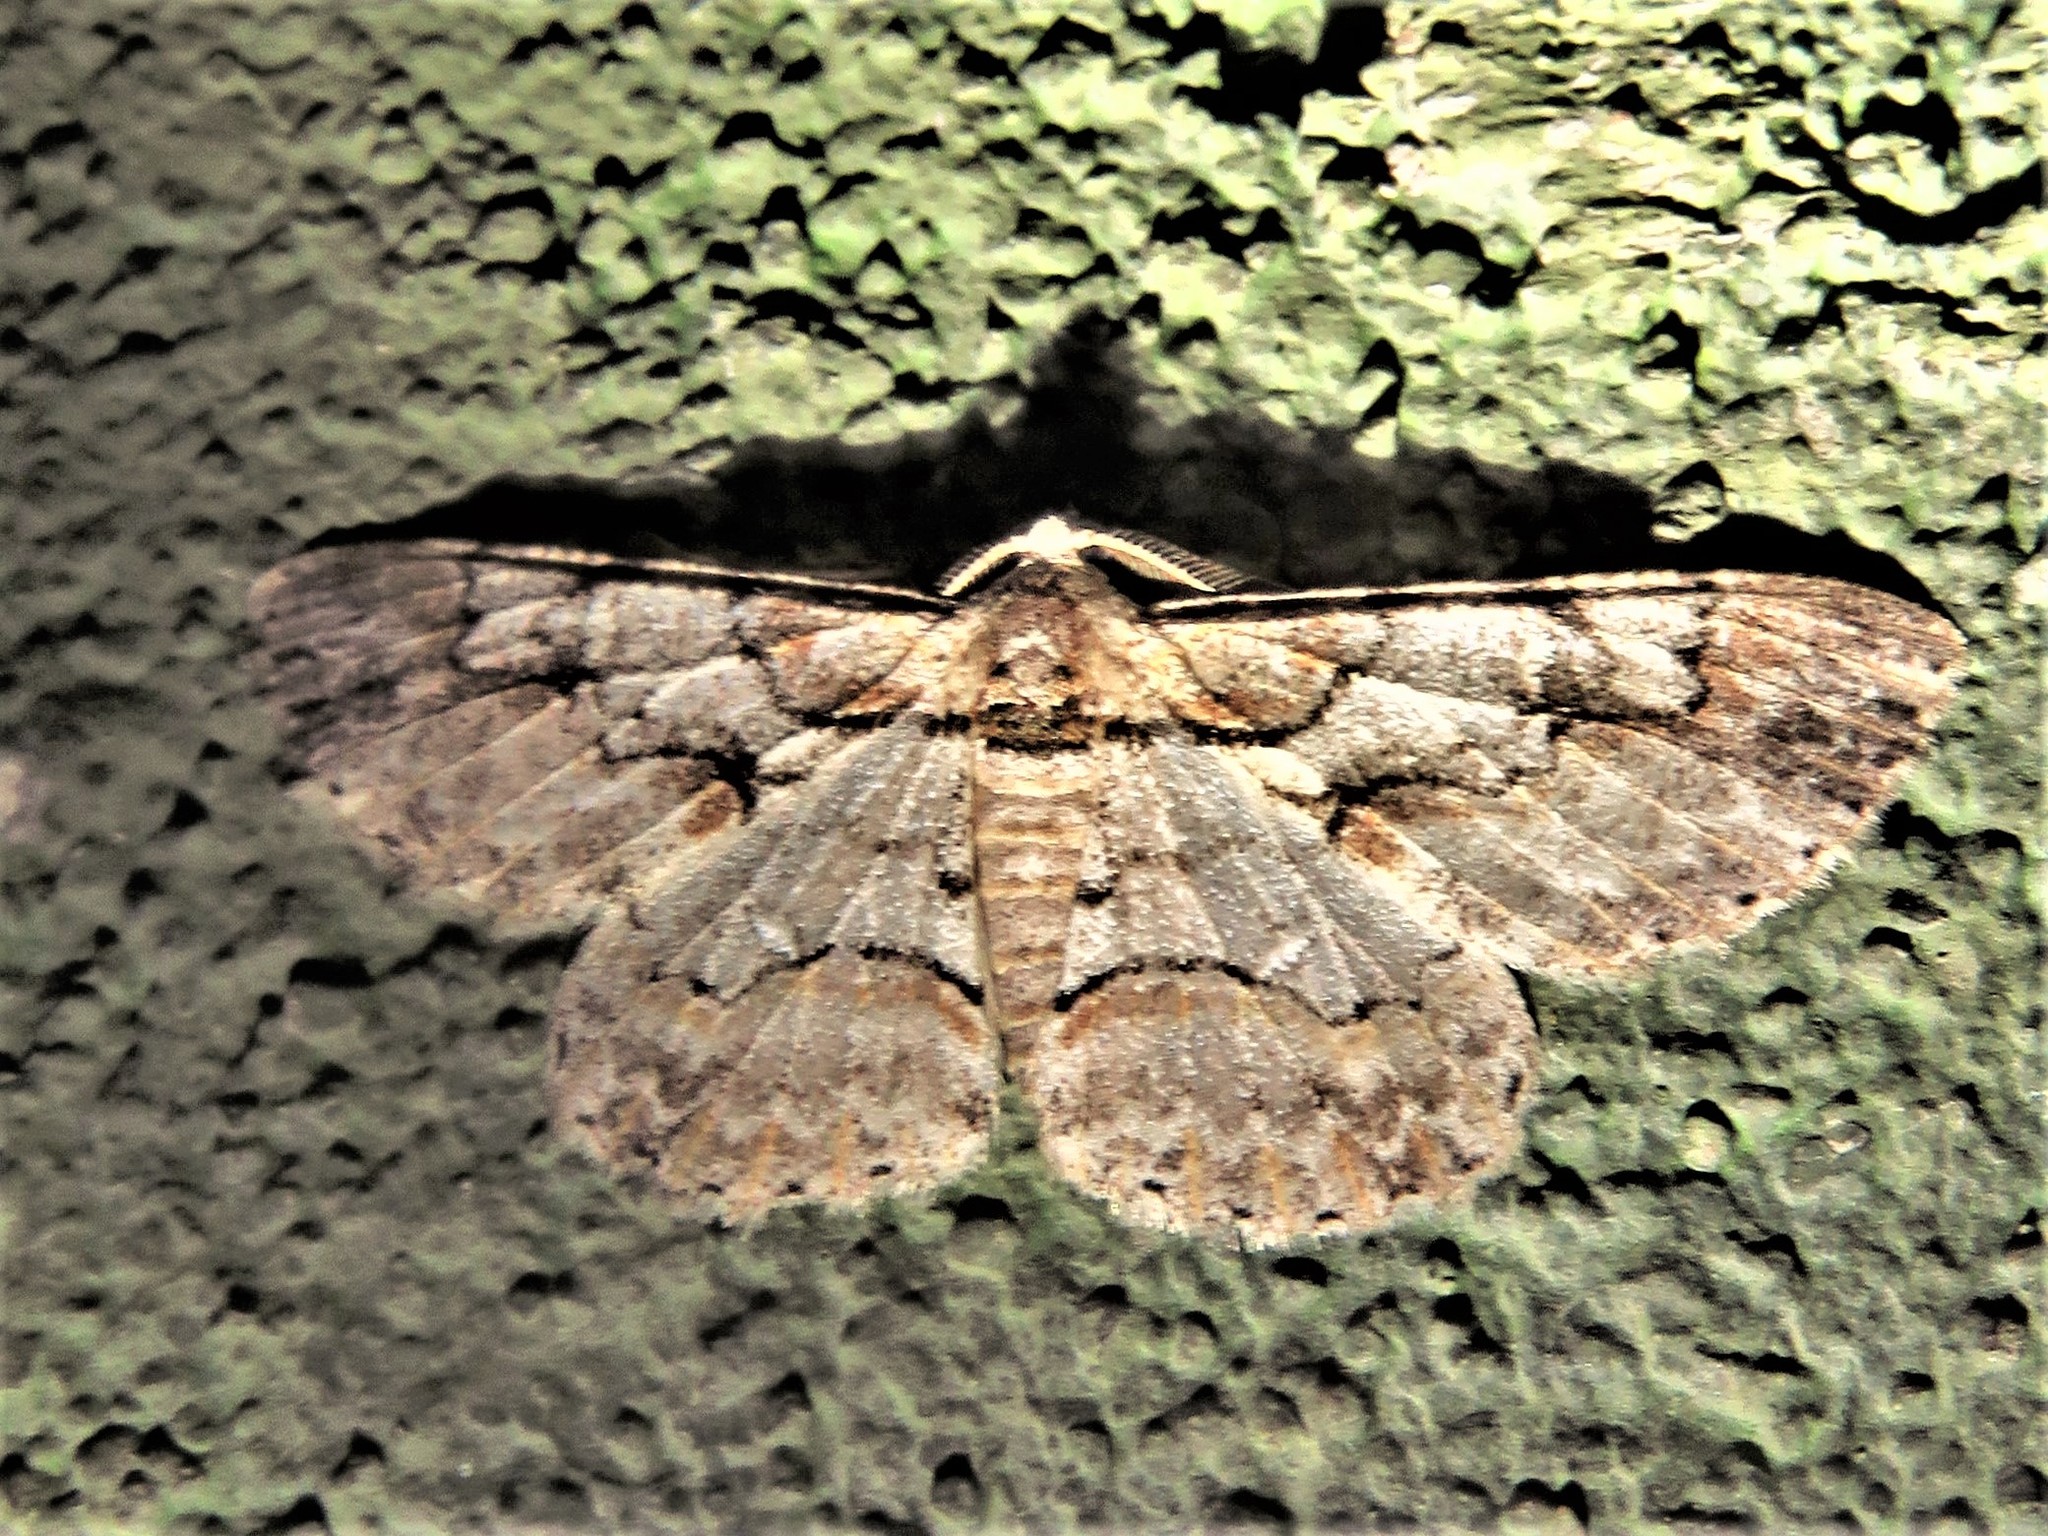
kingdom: Animalia
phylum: Arthropoda
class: Insecta
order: Lepidoptera
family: Geometridae
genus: Iridopsis
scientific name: Iridopsis defectaria
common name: Brown-shaded gray
